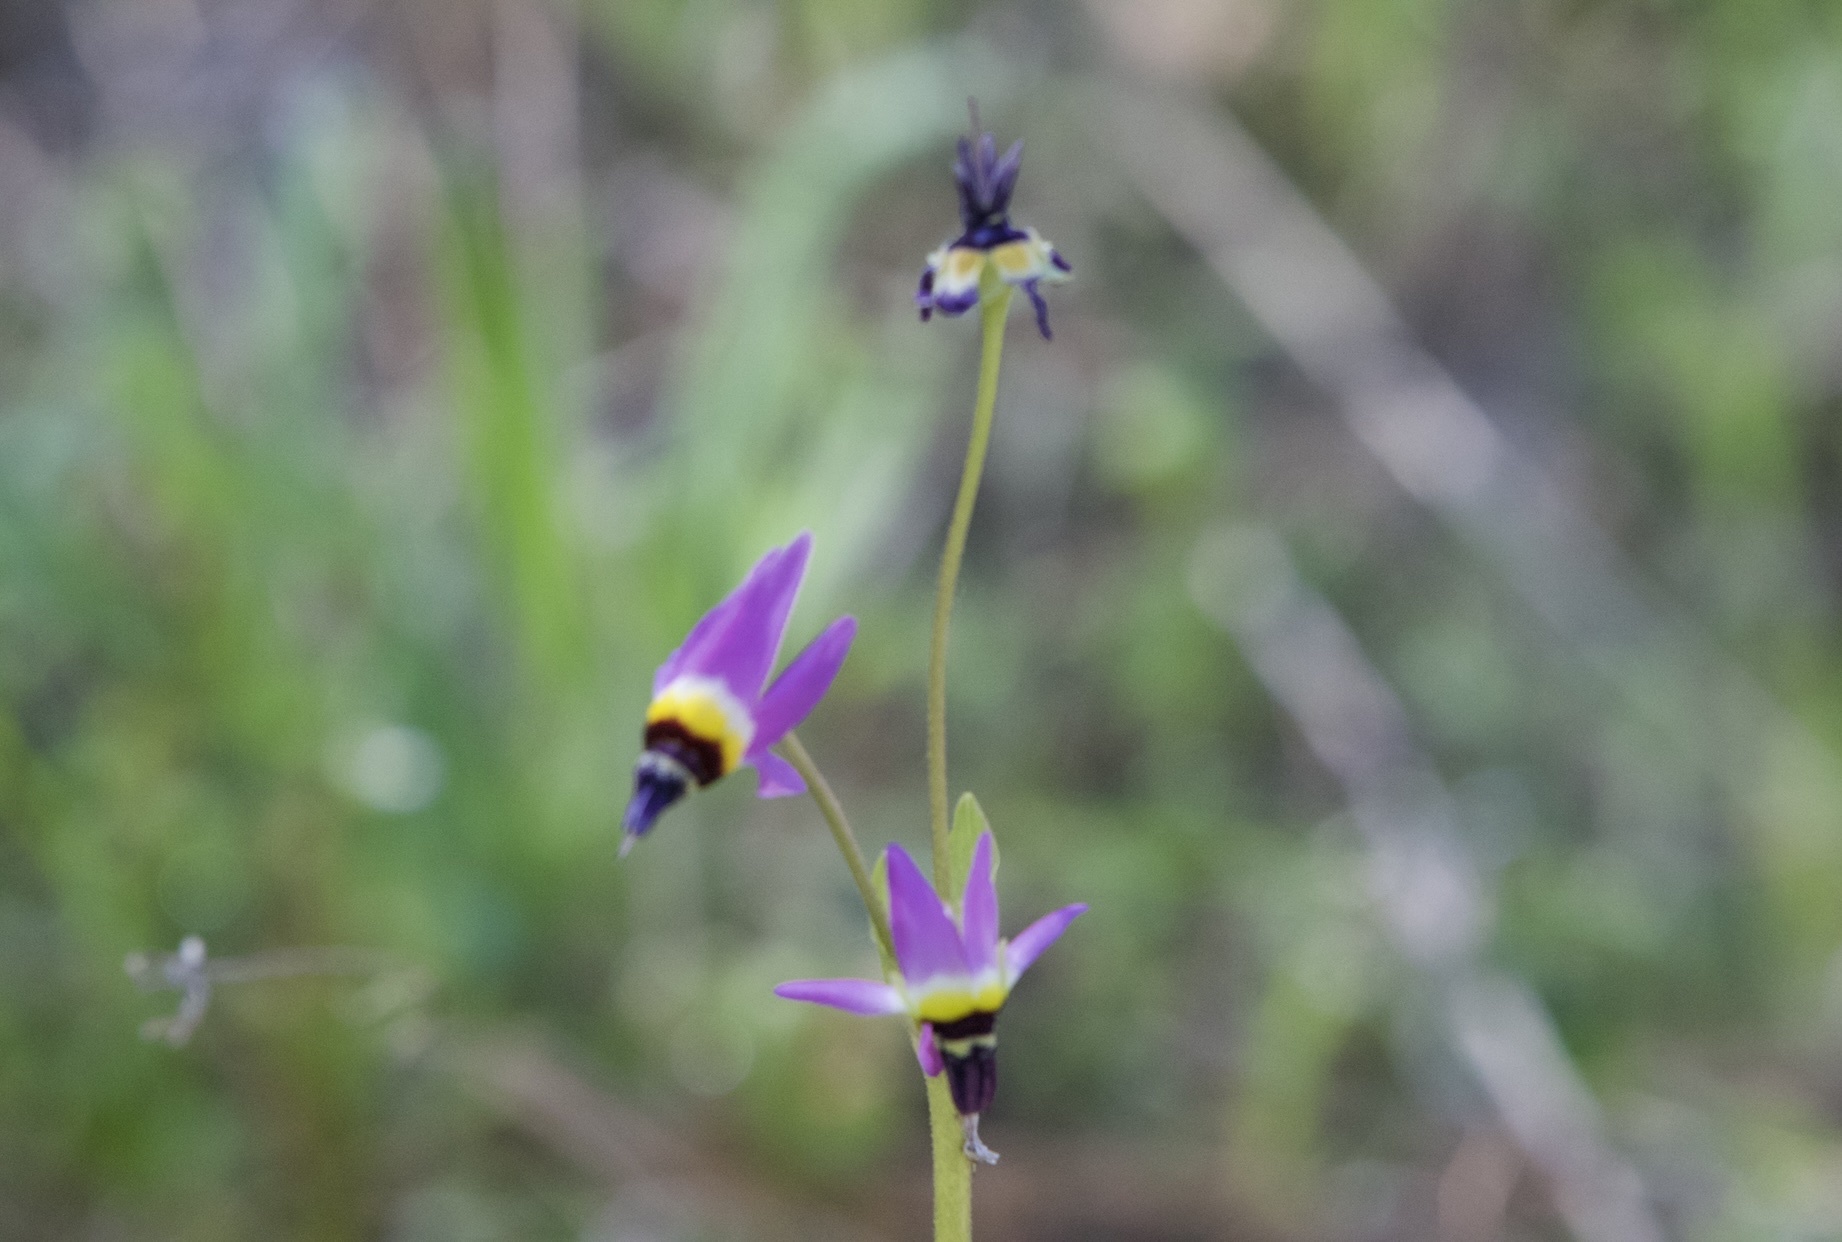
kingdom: Plantae
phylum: Tracheophyta
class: Magnoliopsida
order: Ericales
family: Primulaceae
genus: Dodecatheon
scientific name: Dodecatheon clevelandii
